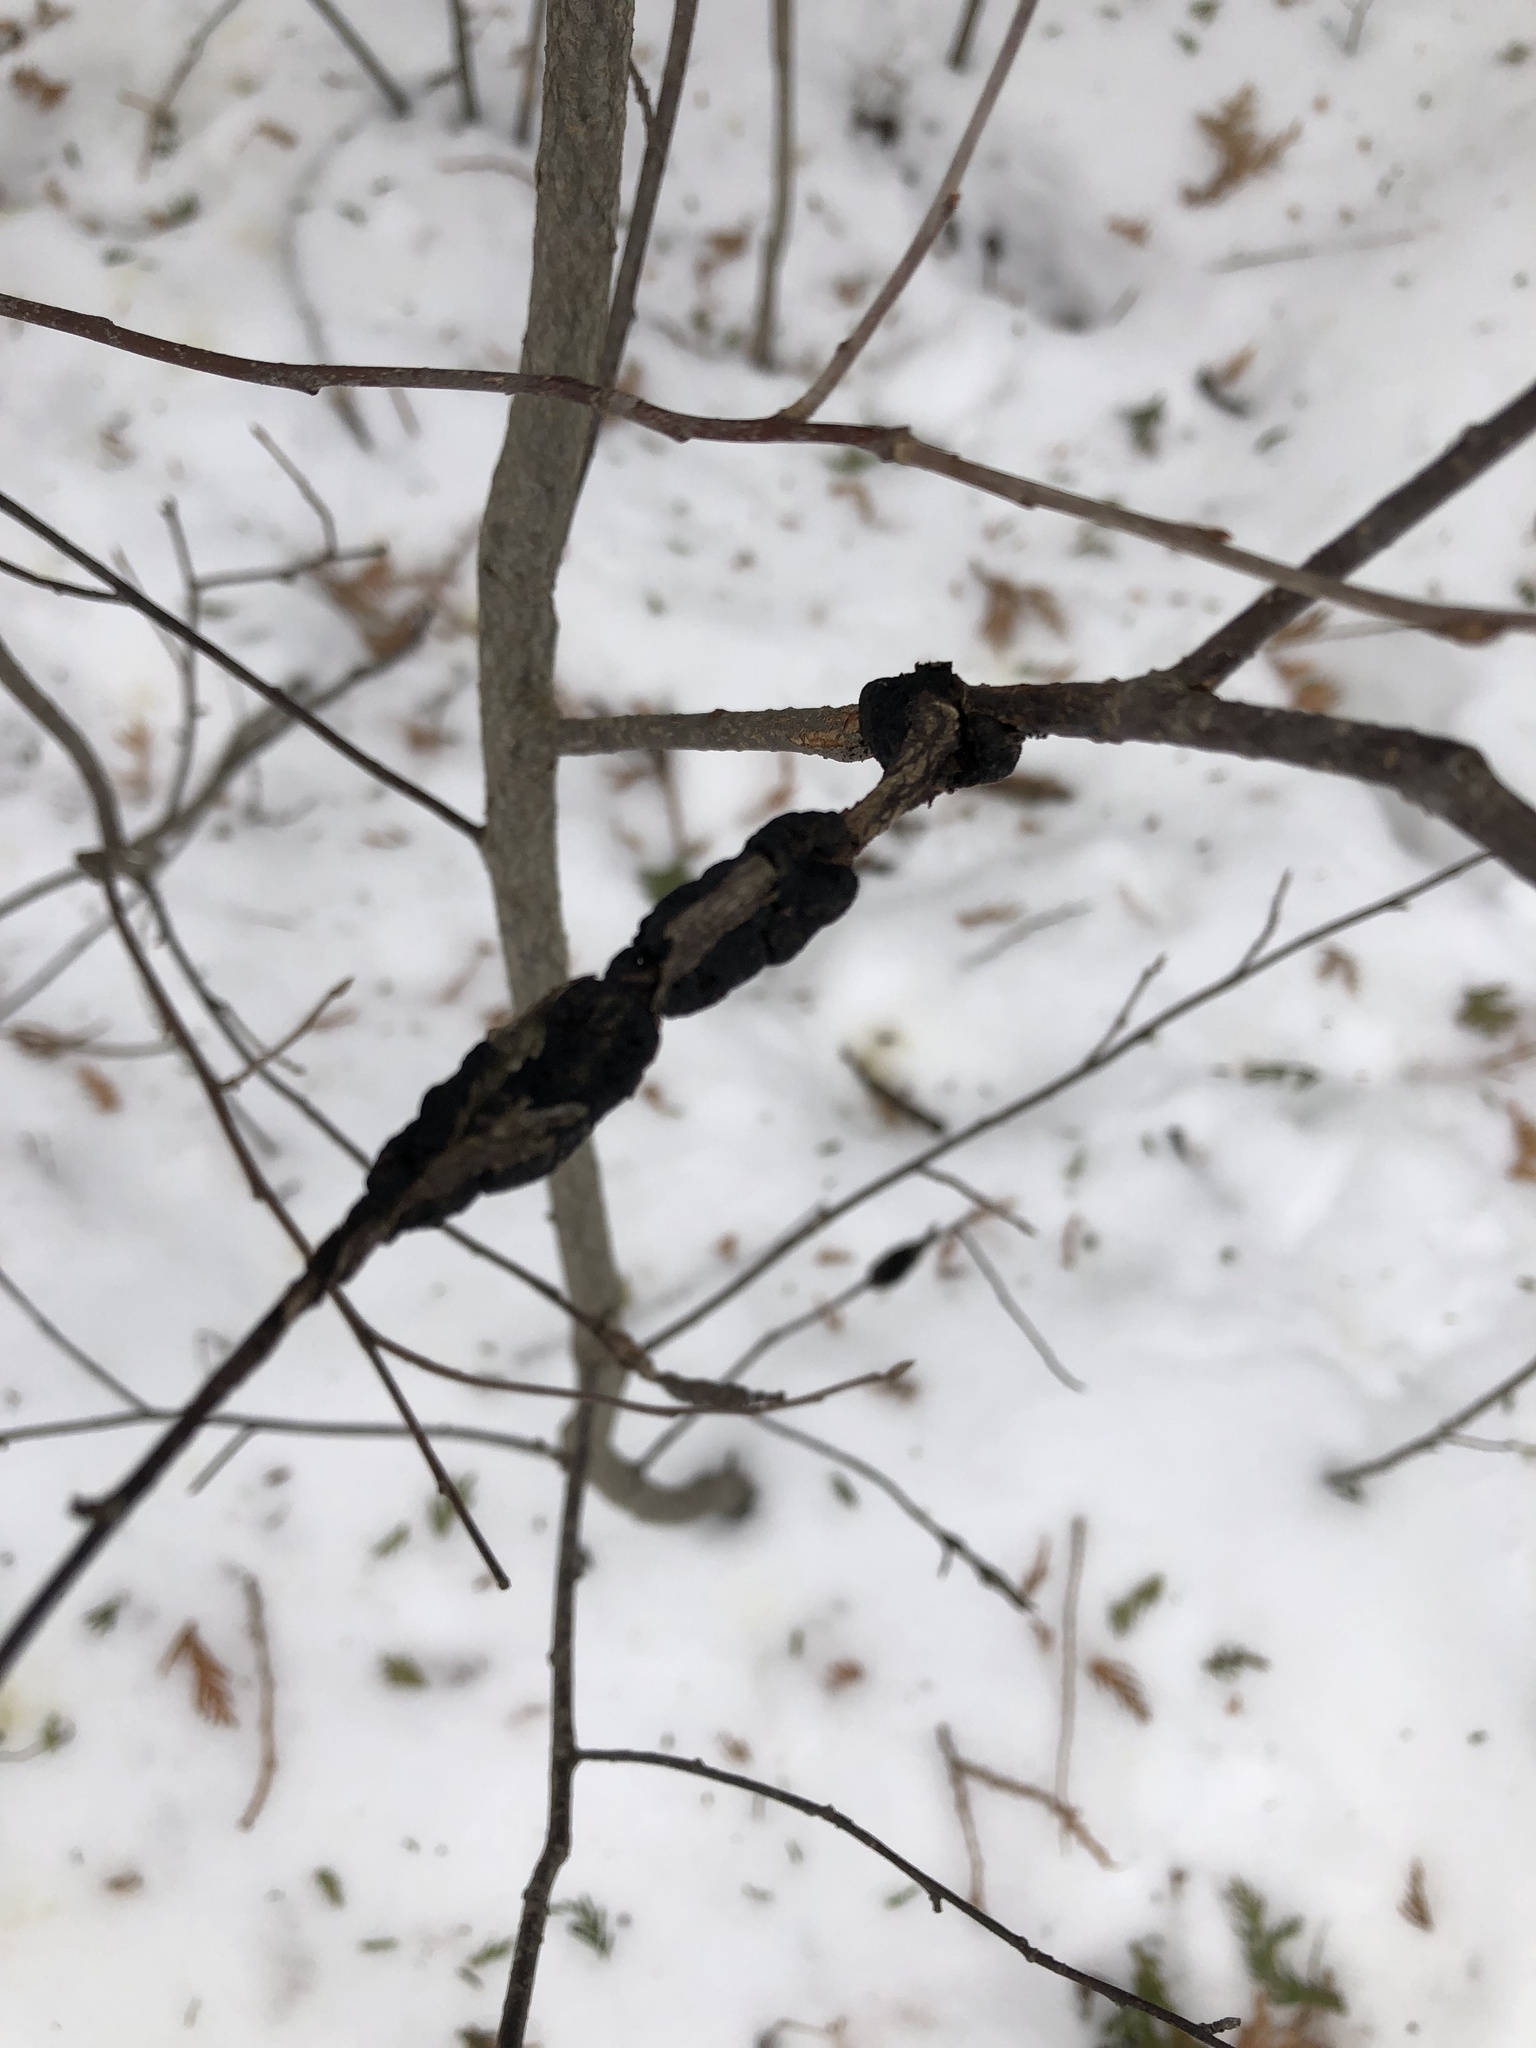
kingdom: Fungi
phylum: Ascomycota
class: Dothideomycetes
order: Venturiales
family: Venturiaceae
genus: Apiosporina
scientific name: Apiosporina morbosa
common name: Black knot
